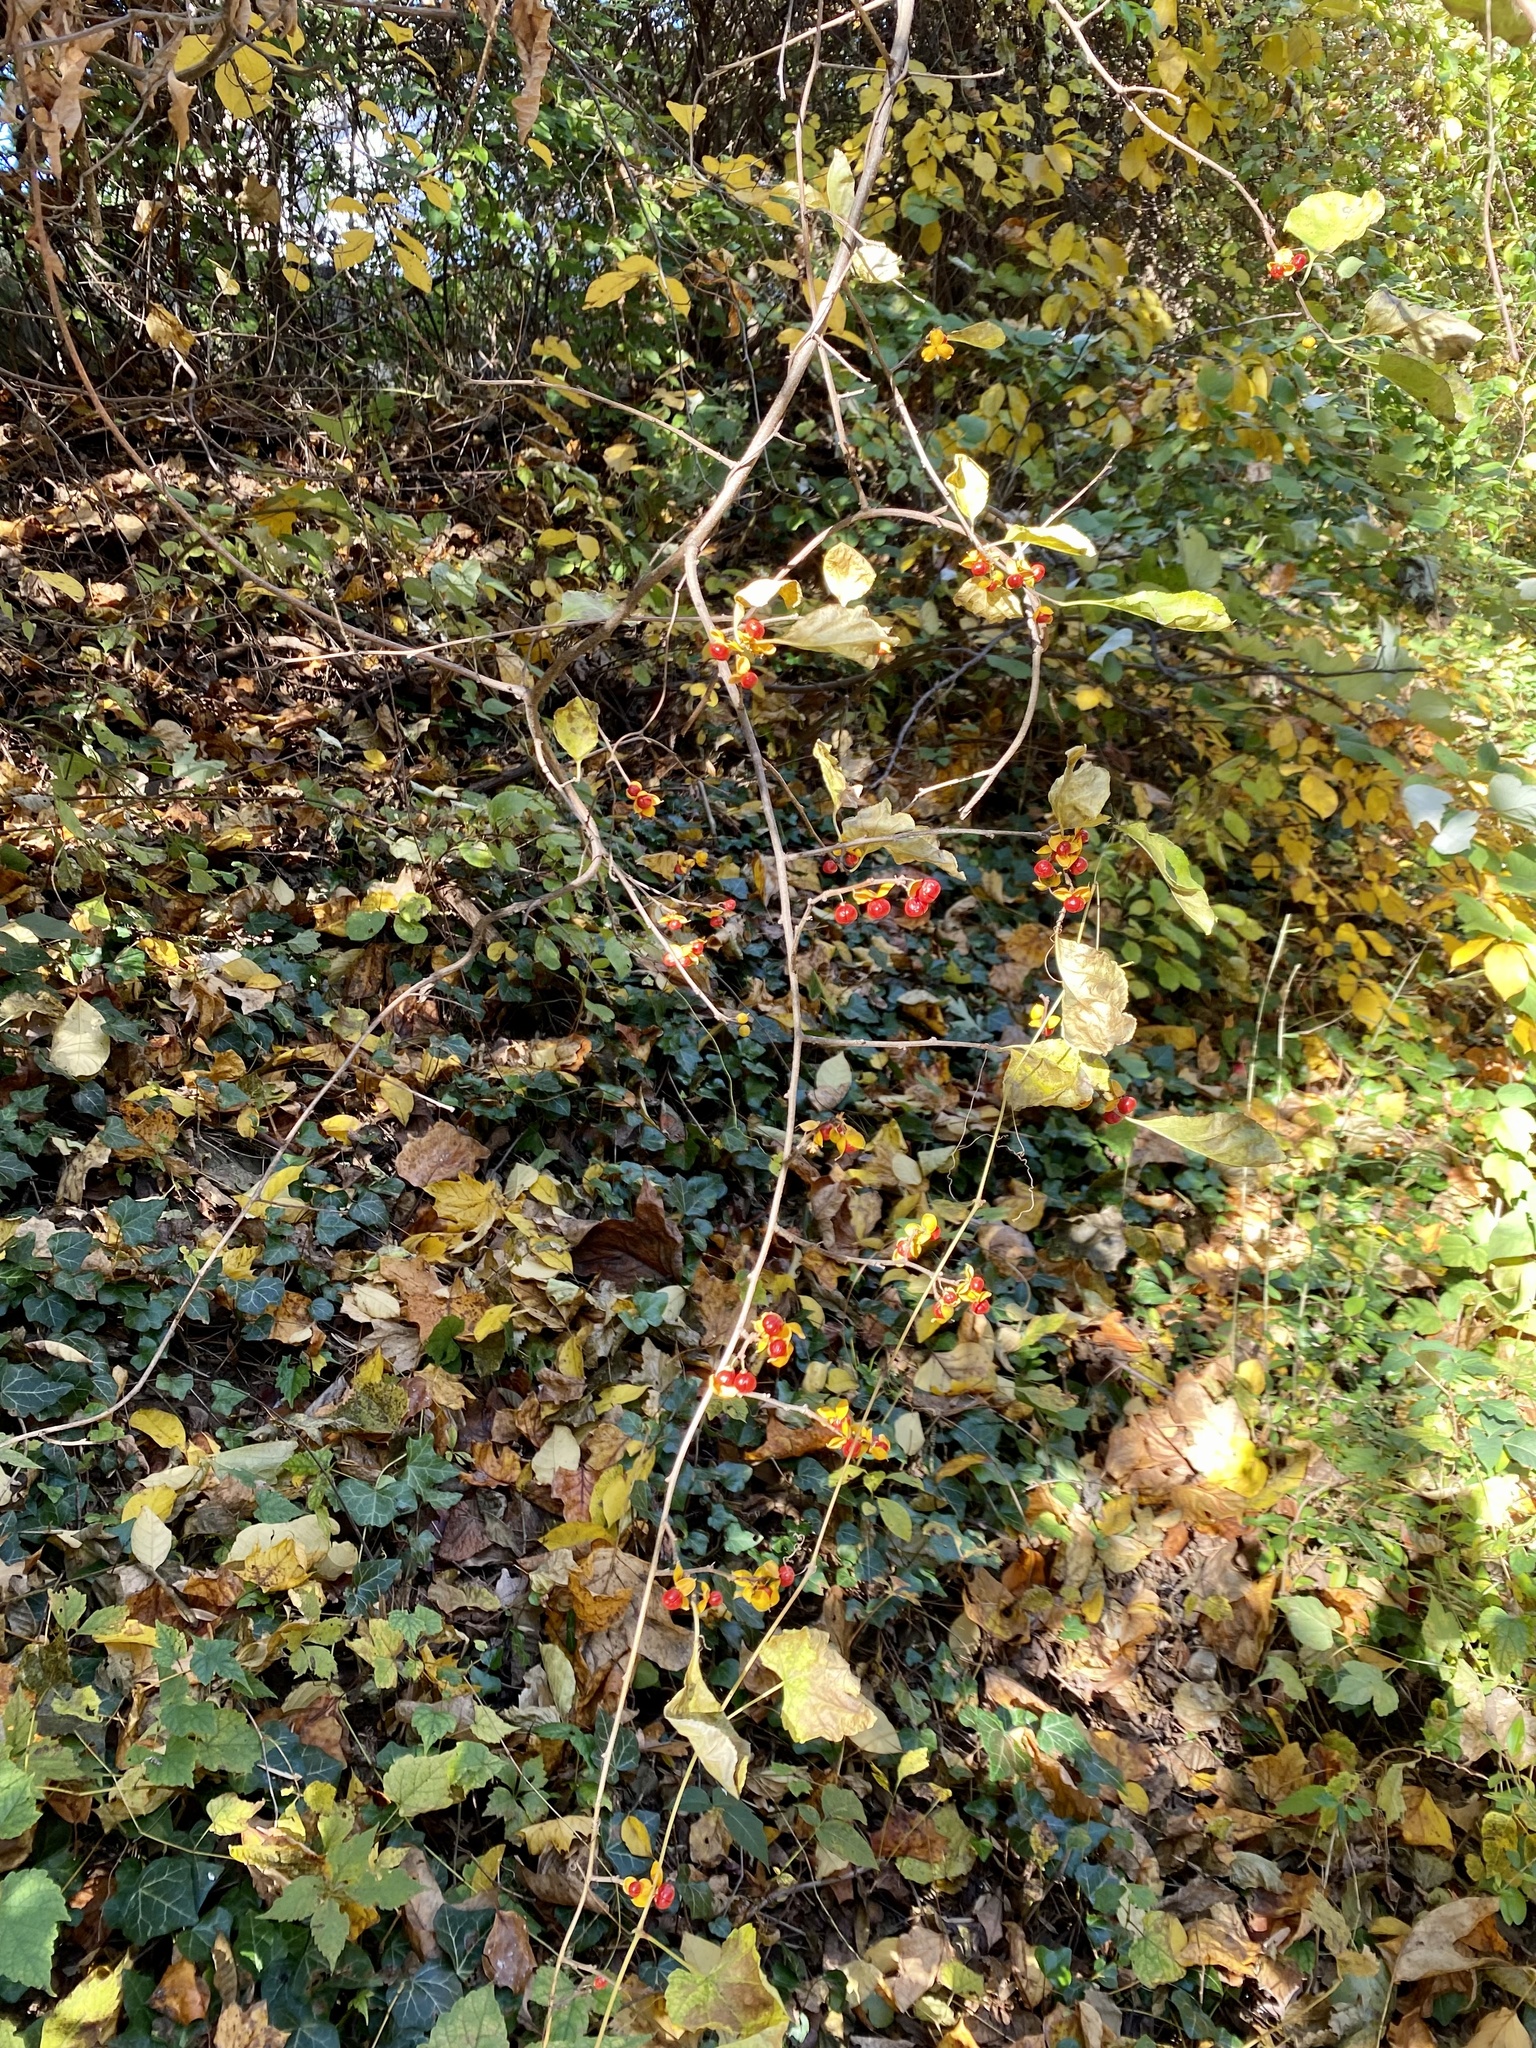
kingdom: Plantae
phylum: Tracheophyta
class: Magnoliopsida
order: Celastrales
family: Celastraceae
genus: Celastrus
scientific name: Celastrus orbiculatus
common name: Oriental bittersweet
